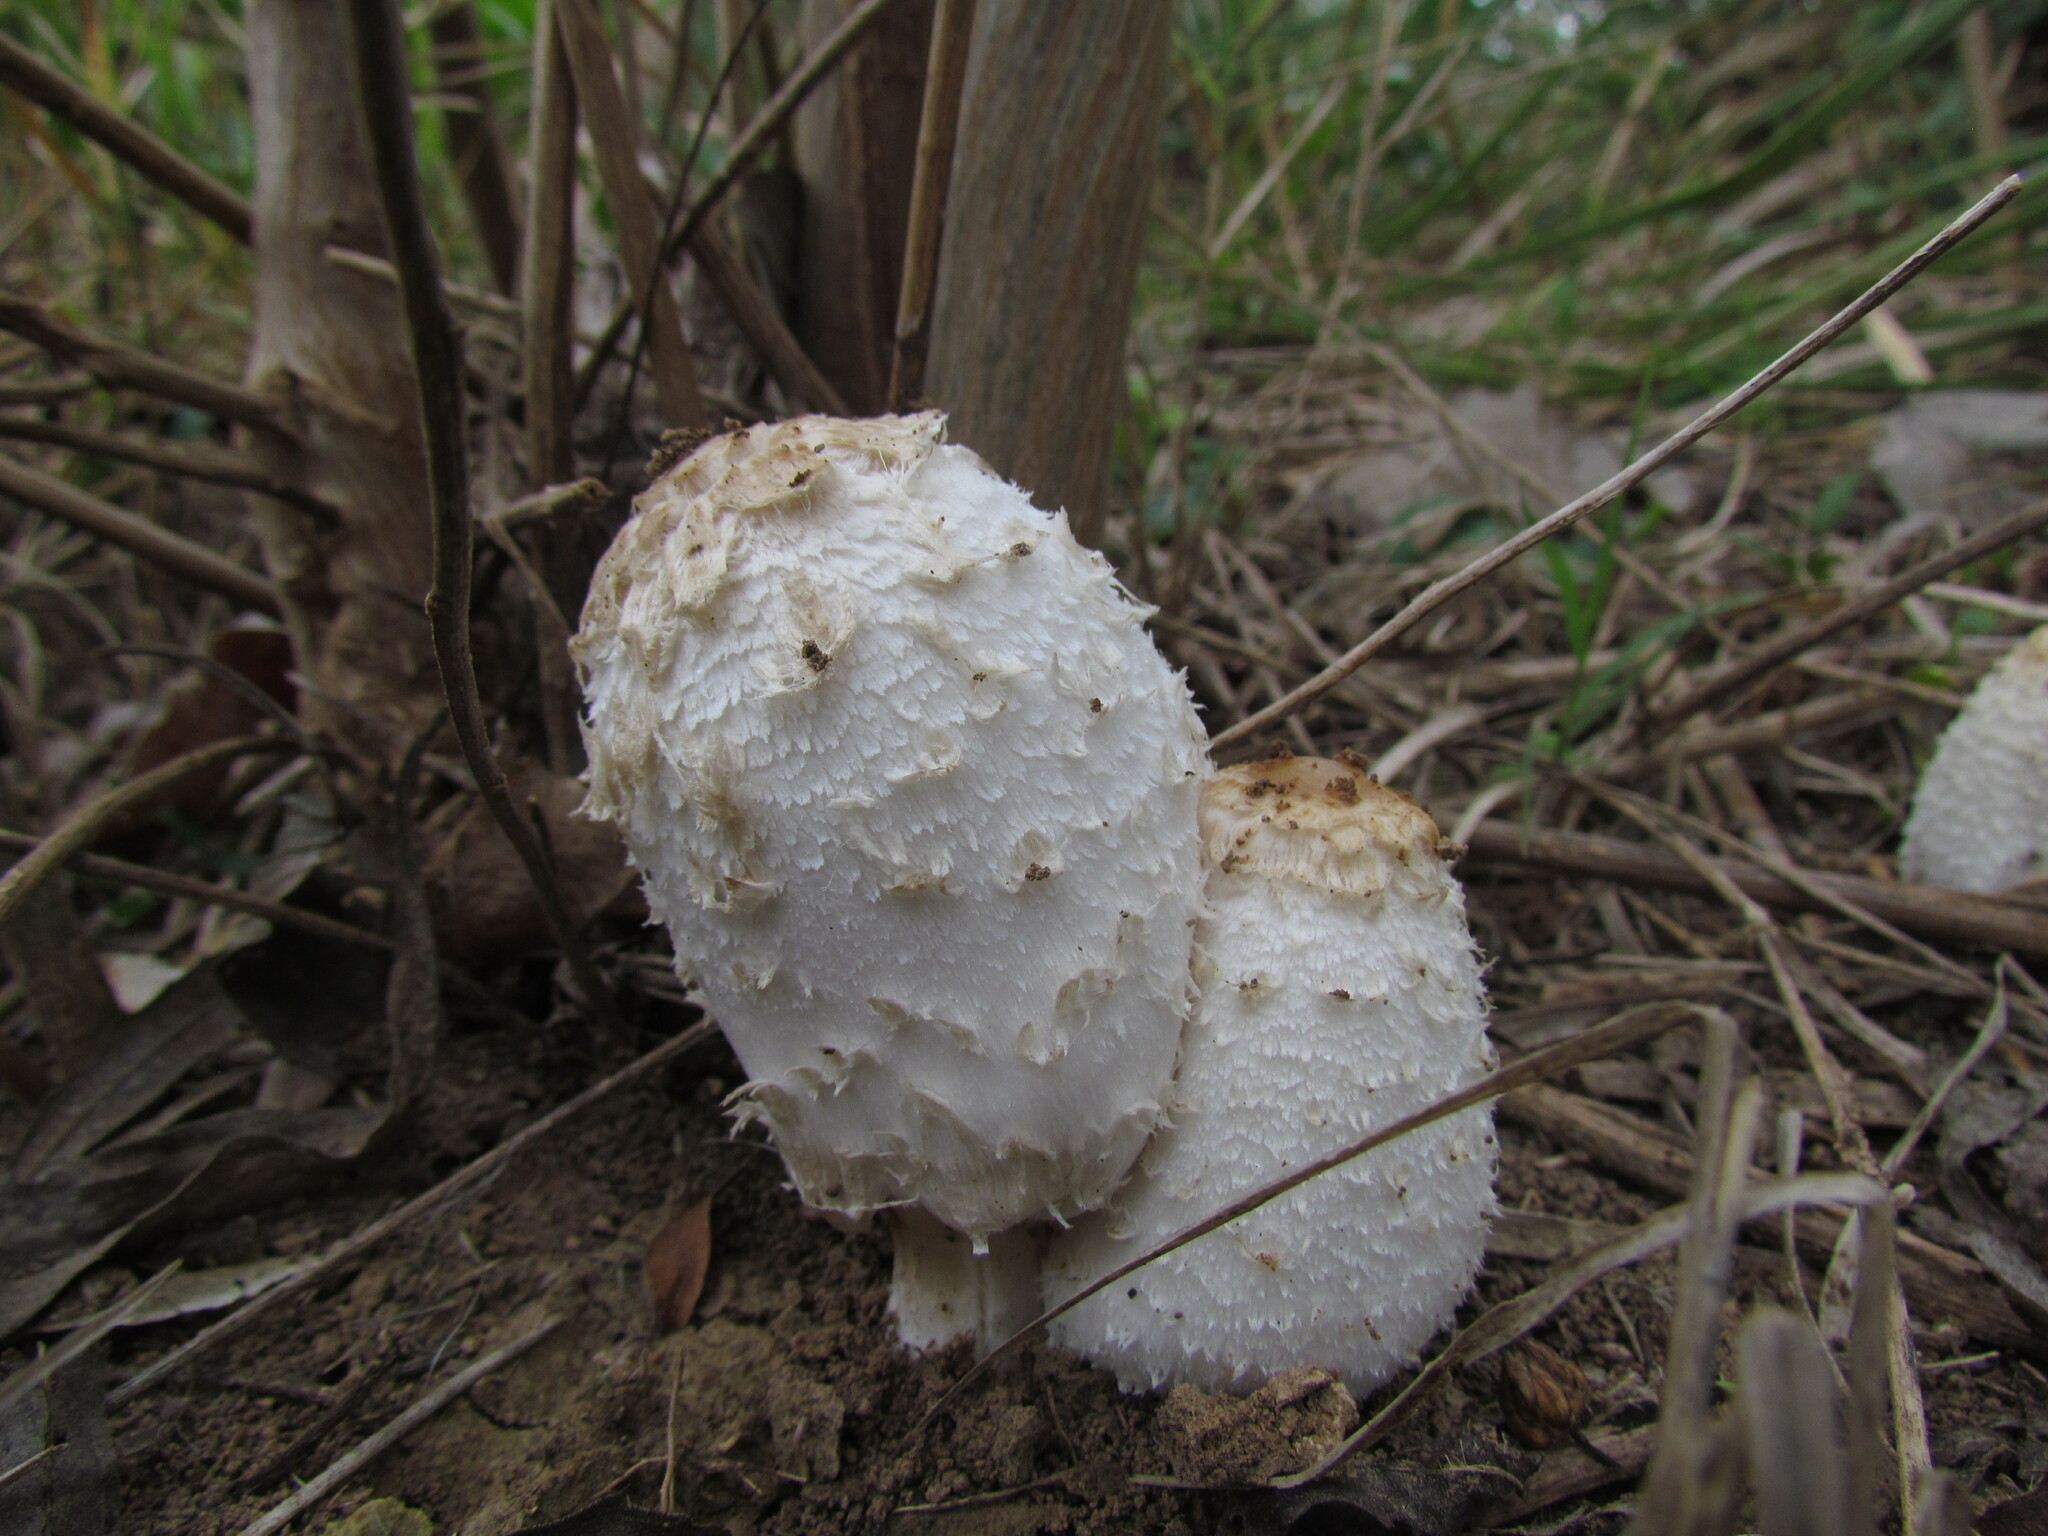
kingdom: Fungi
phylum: Basidiomycota
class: Agaricomycetes
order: Agaricales
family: Agaricaceae
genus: Coprinus
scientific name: Coprinus comatus
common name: Lawyer's wig
